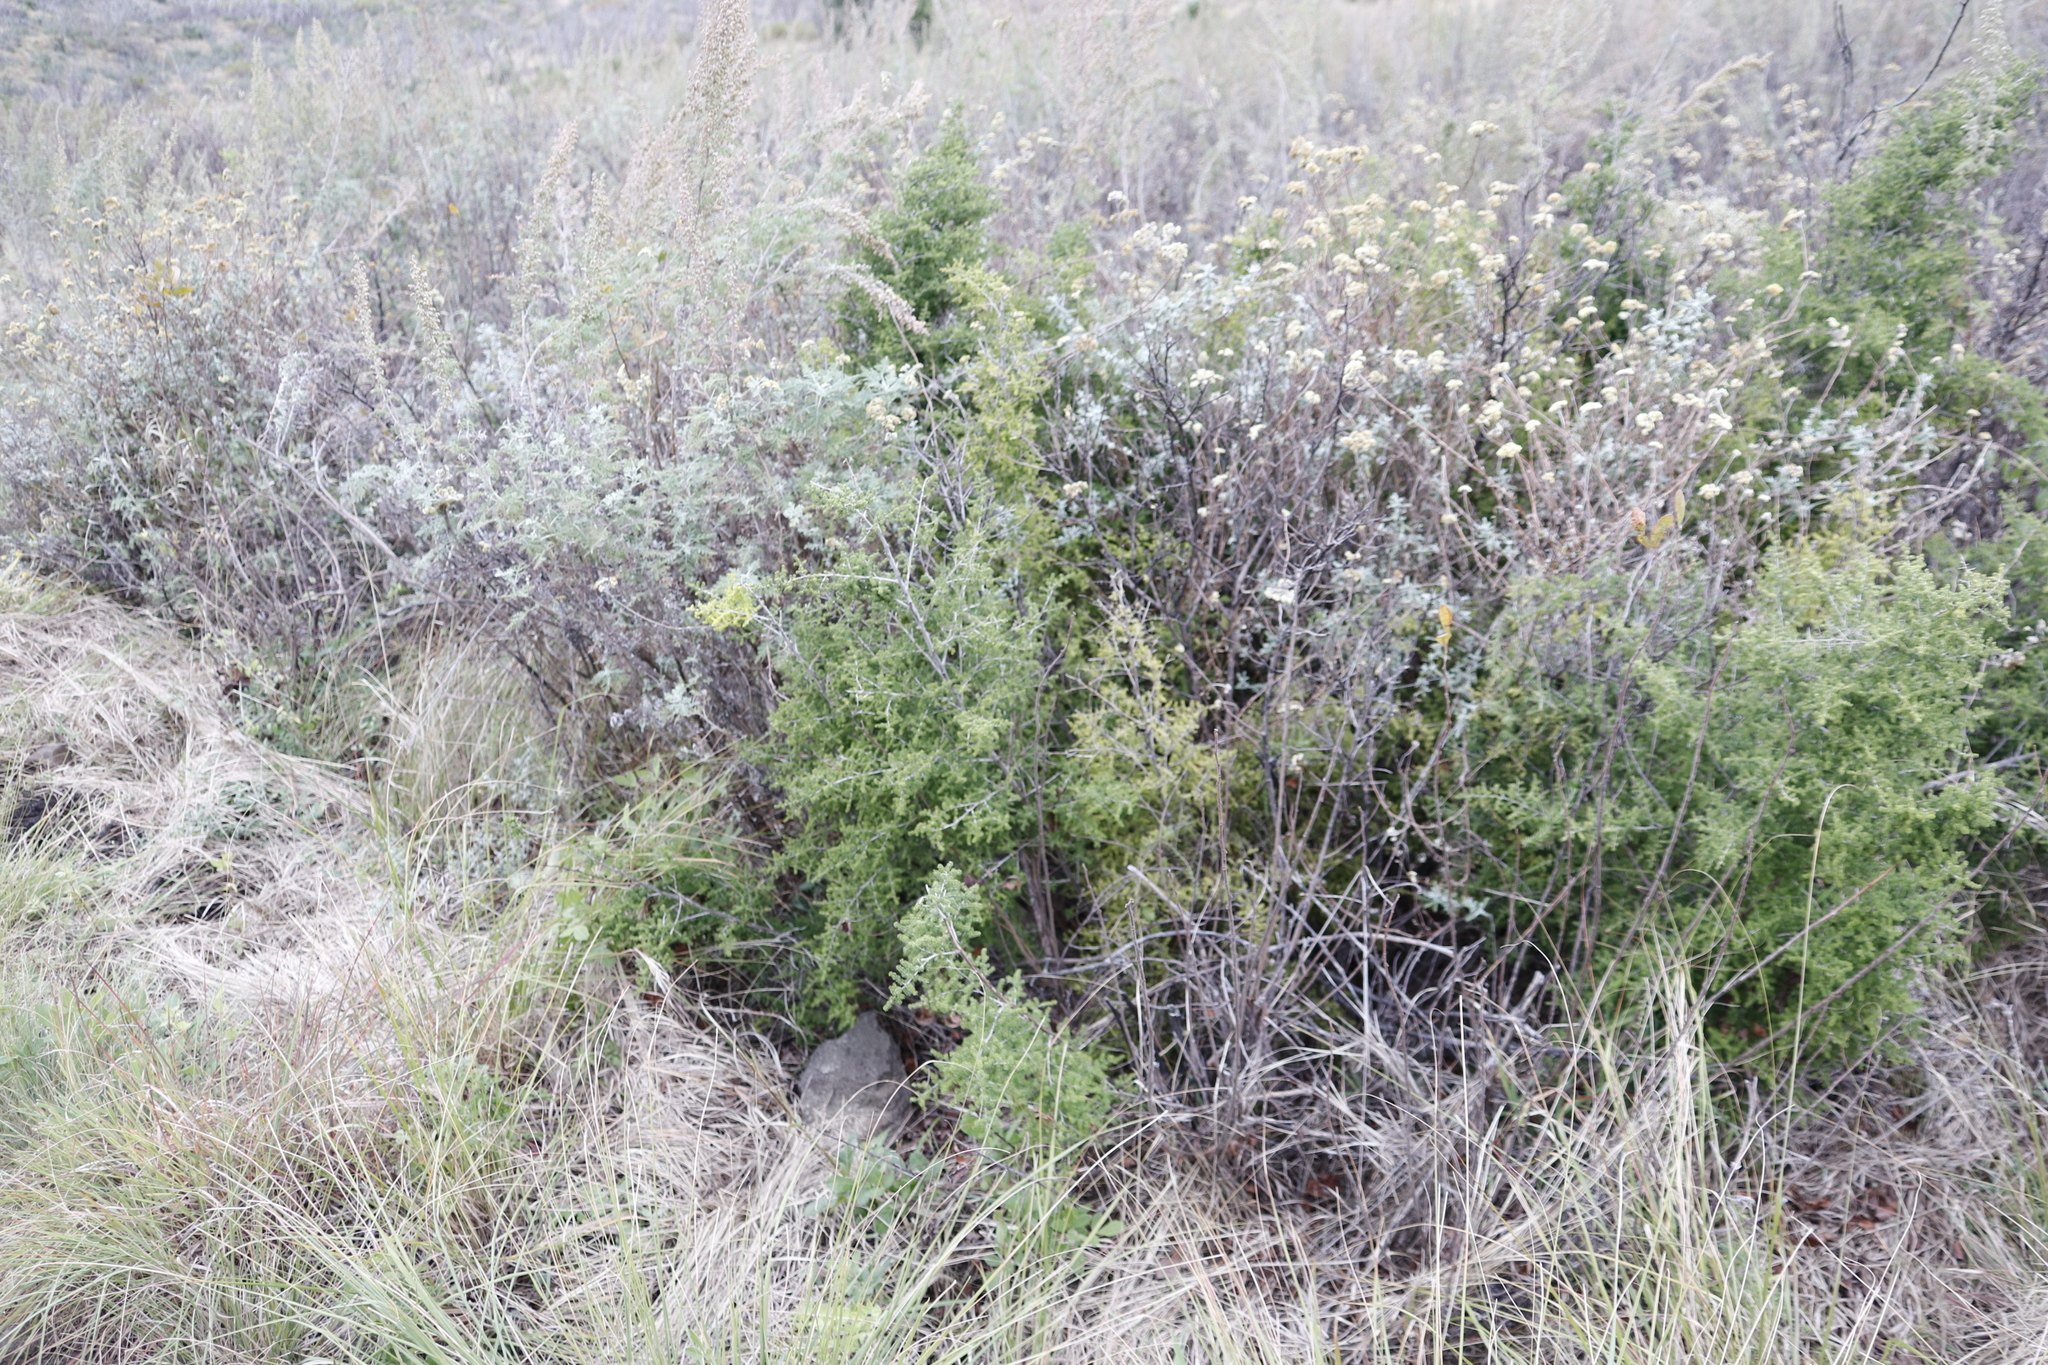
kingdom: Plantae
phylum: Tracheophyta
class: Liliopsida
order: Asparagales
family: Asparagaceae
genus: Asparagus
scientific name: Asparagus stellatus
